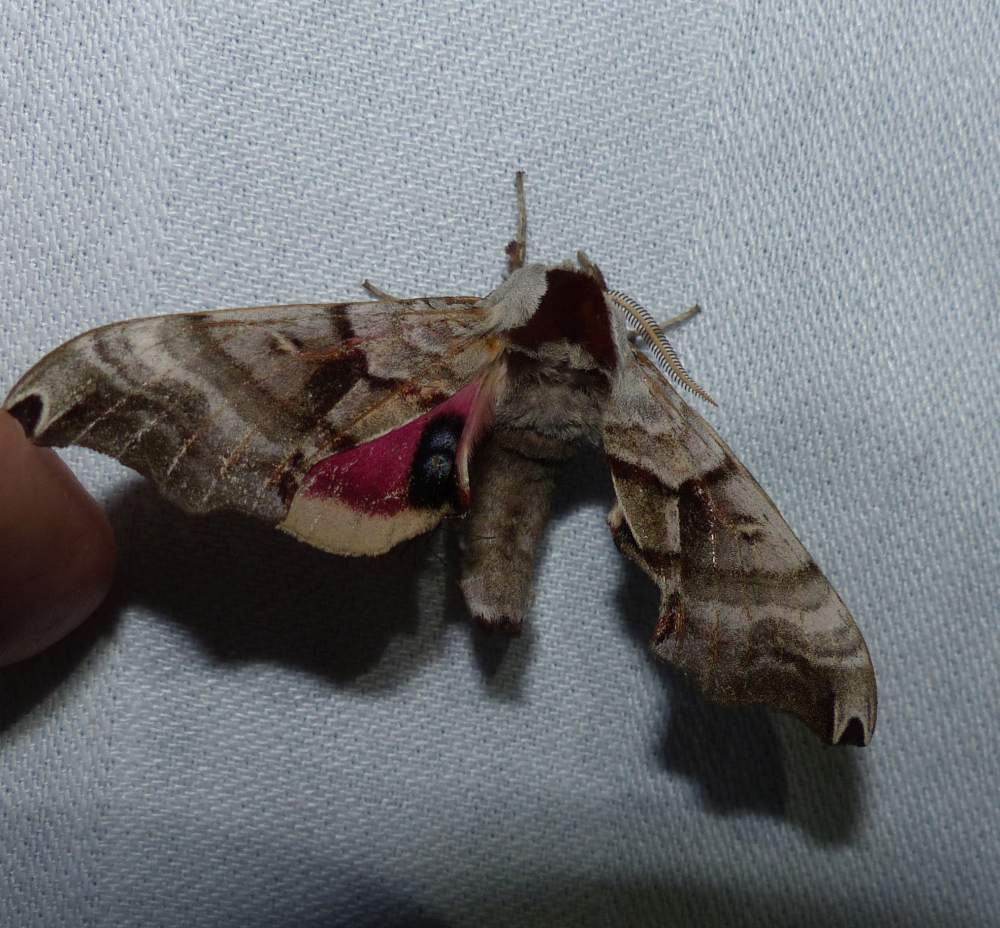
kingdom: Animalia
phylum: Arthropoda
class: Insecta
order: Lepidoptera
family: Sphingidae
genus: Smerinthus
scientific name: Smerinthus jamaicensis
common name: Twin spotted sphinx
